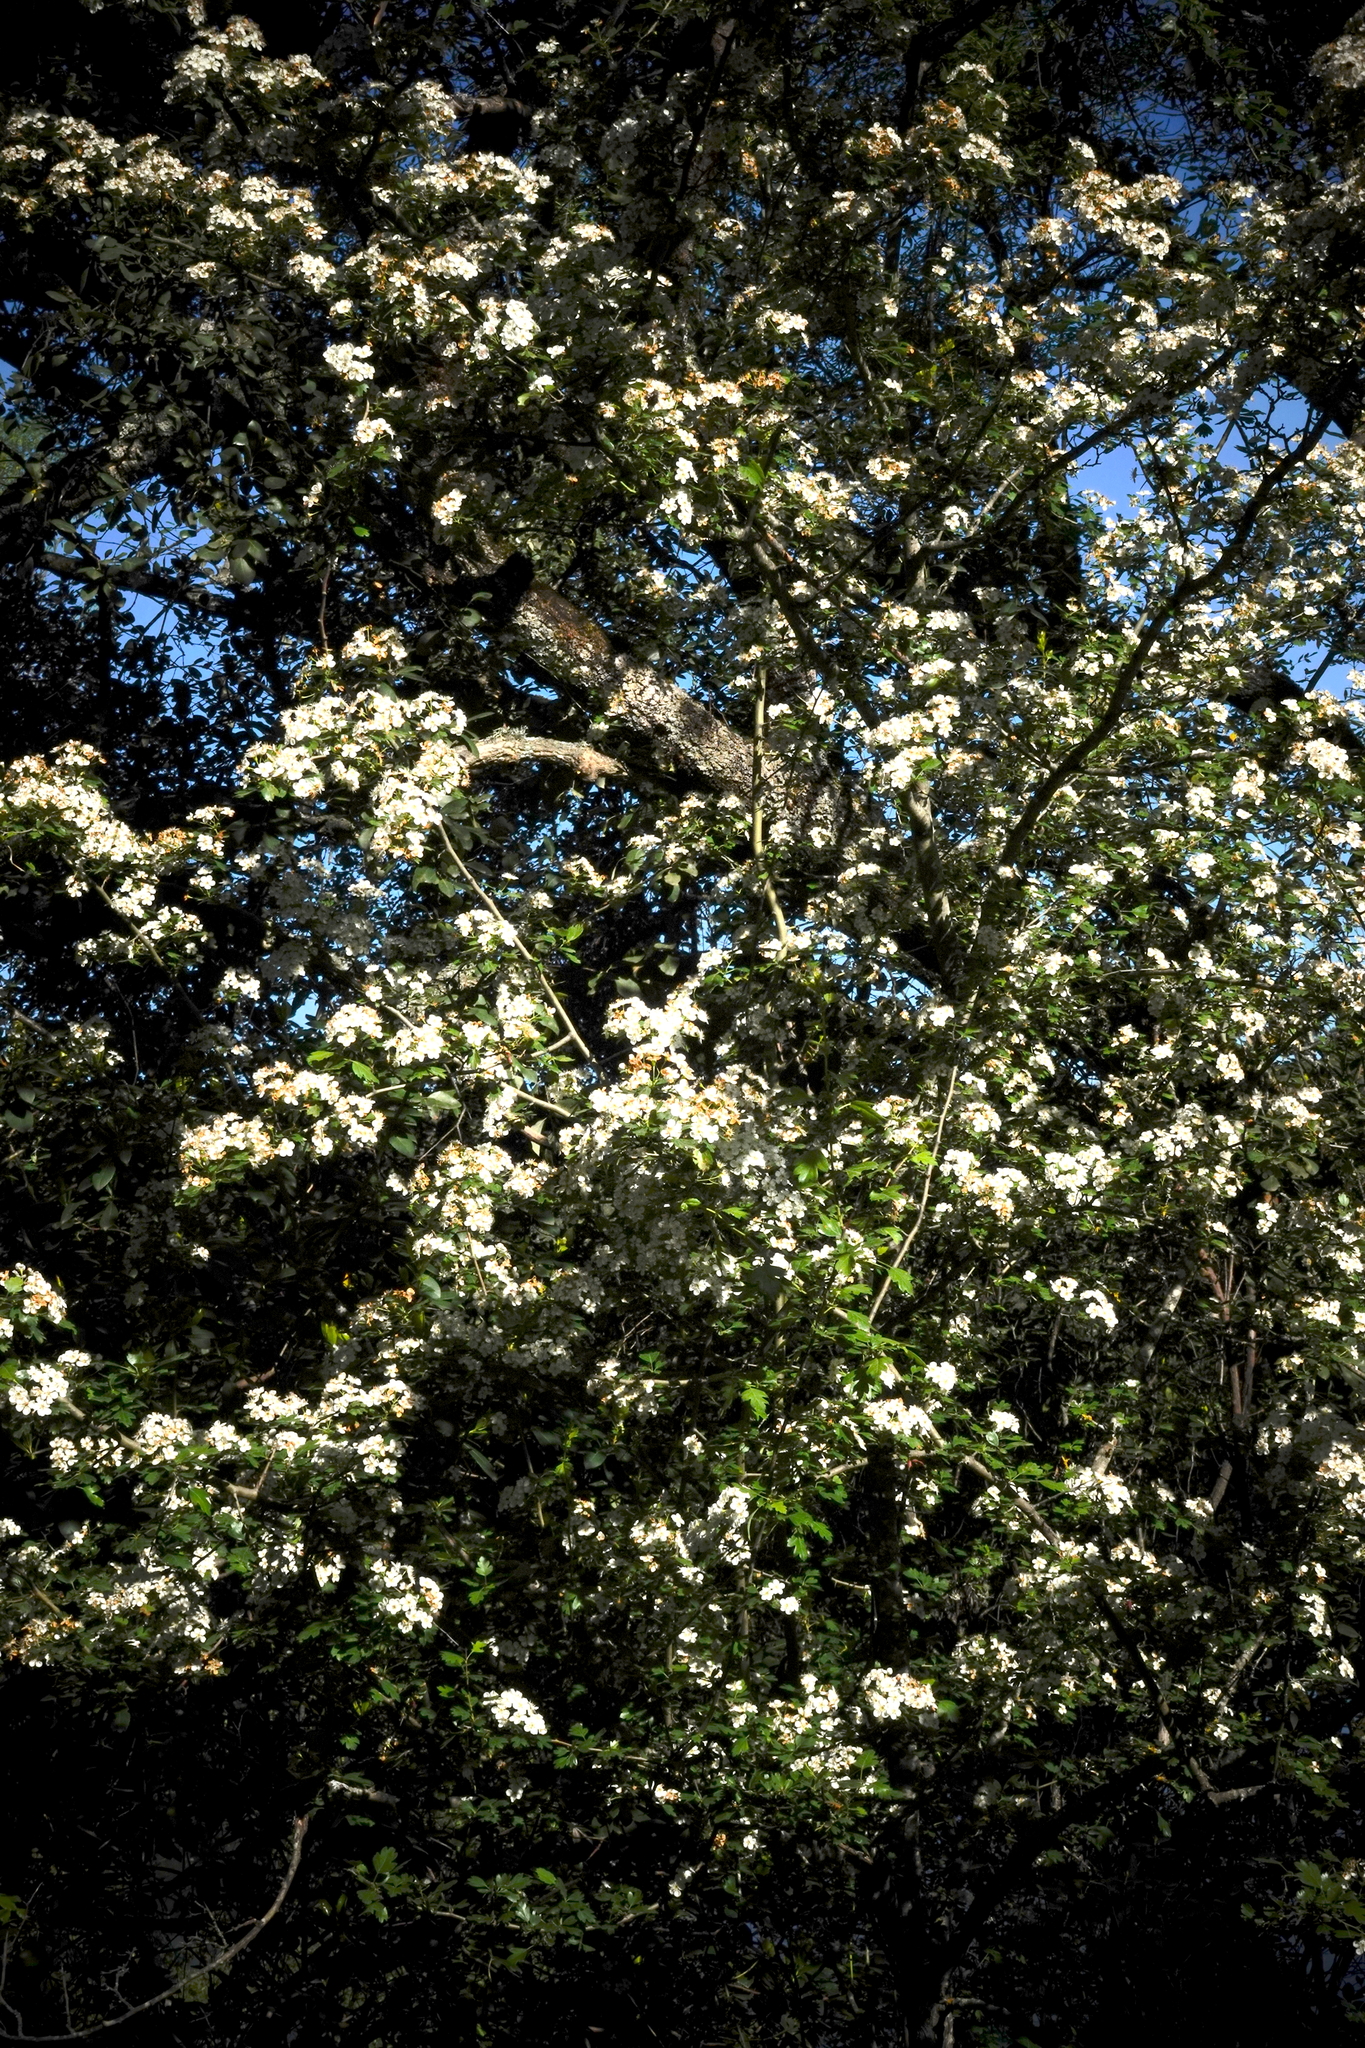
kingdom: Plantae
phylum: Tracheophyta
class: Magnoliopsida
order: Rosales
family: Rosaceae
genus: Crataegus
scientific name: Crataegus monogyna
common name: Hawthorn
